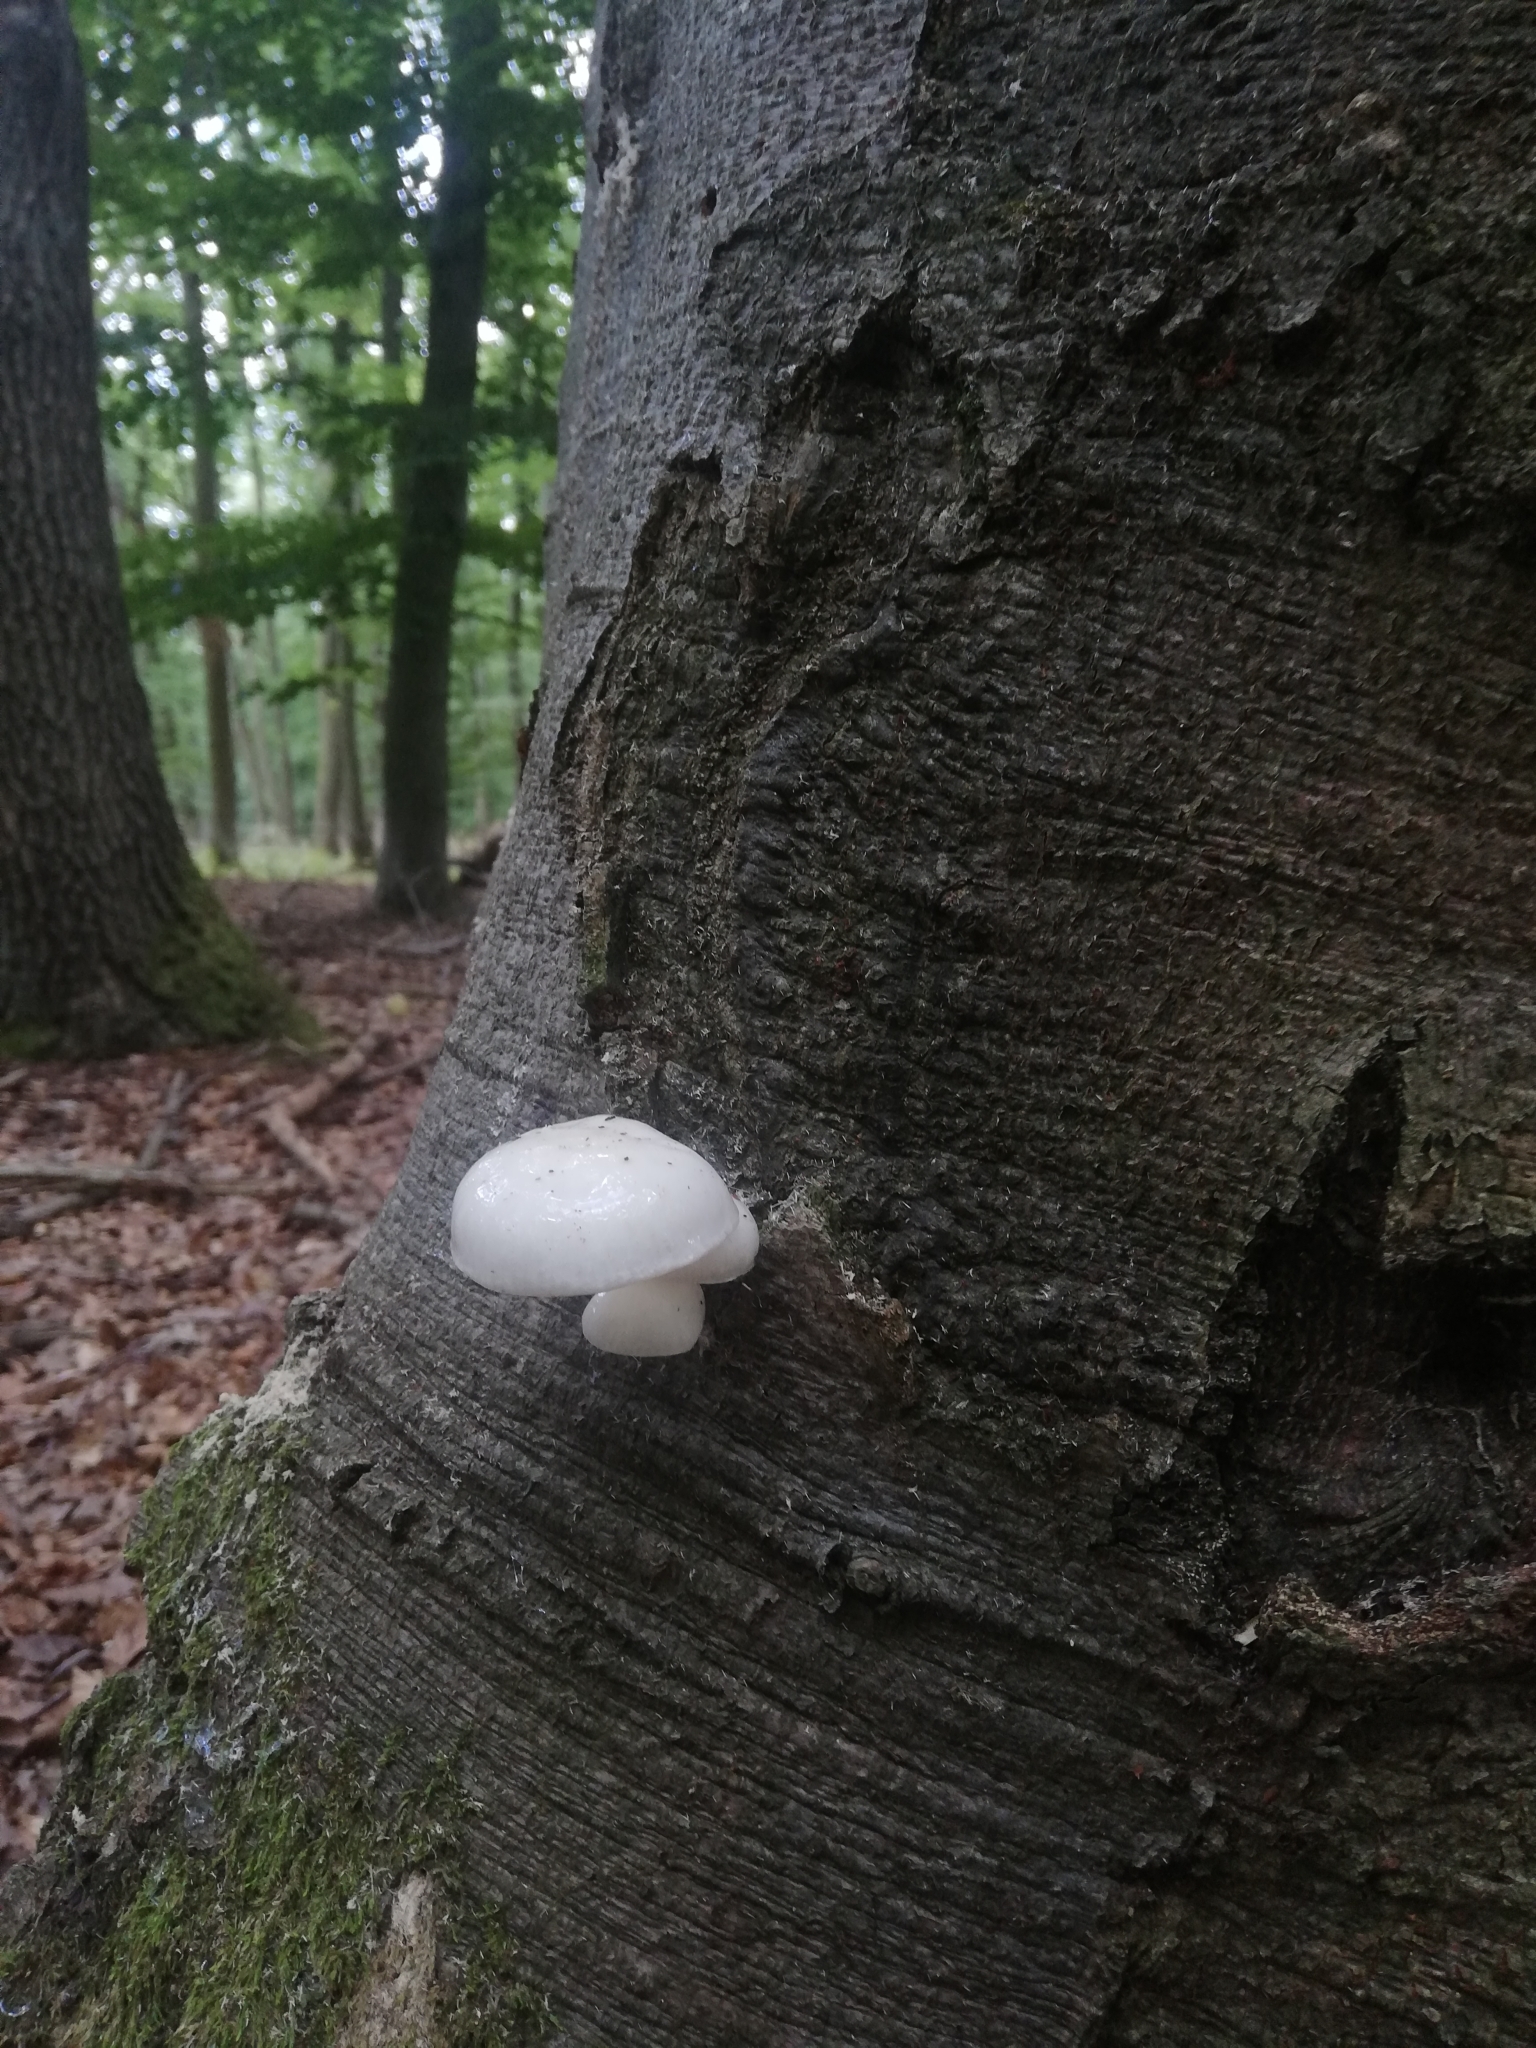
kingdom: Fungi
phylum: Basidiomycota
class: Agaricomycetes
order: Agaricales
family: Physalacriaceae
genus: Mucidula
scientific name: Mucidula mucida
